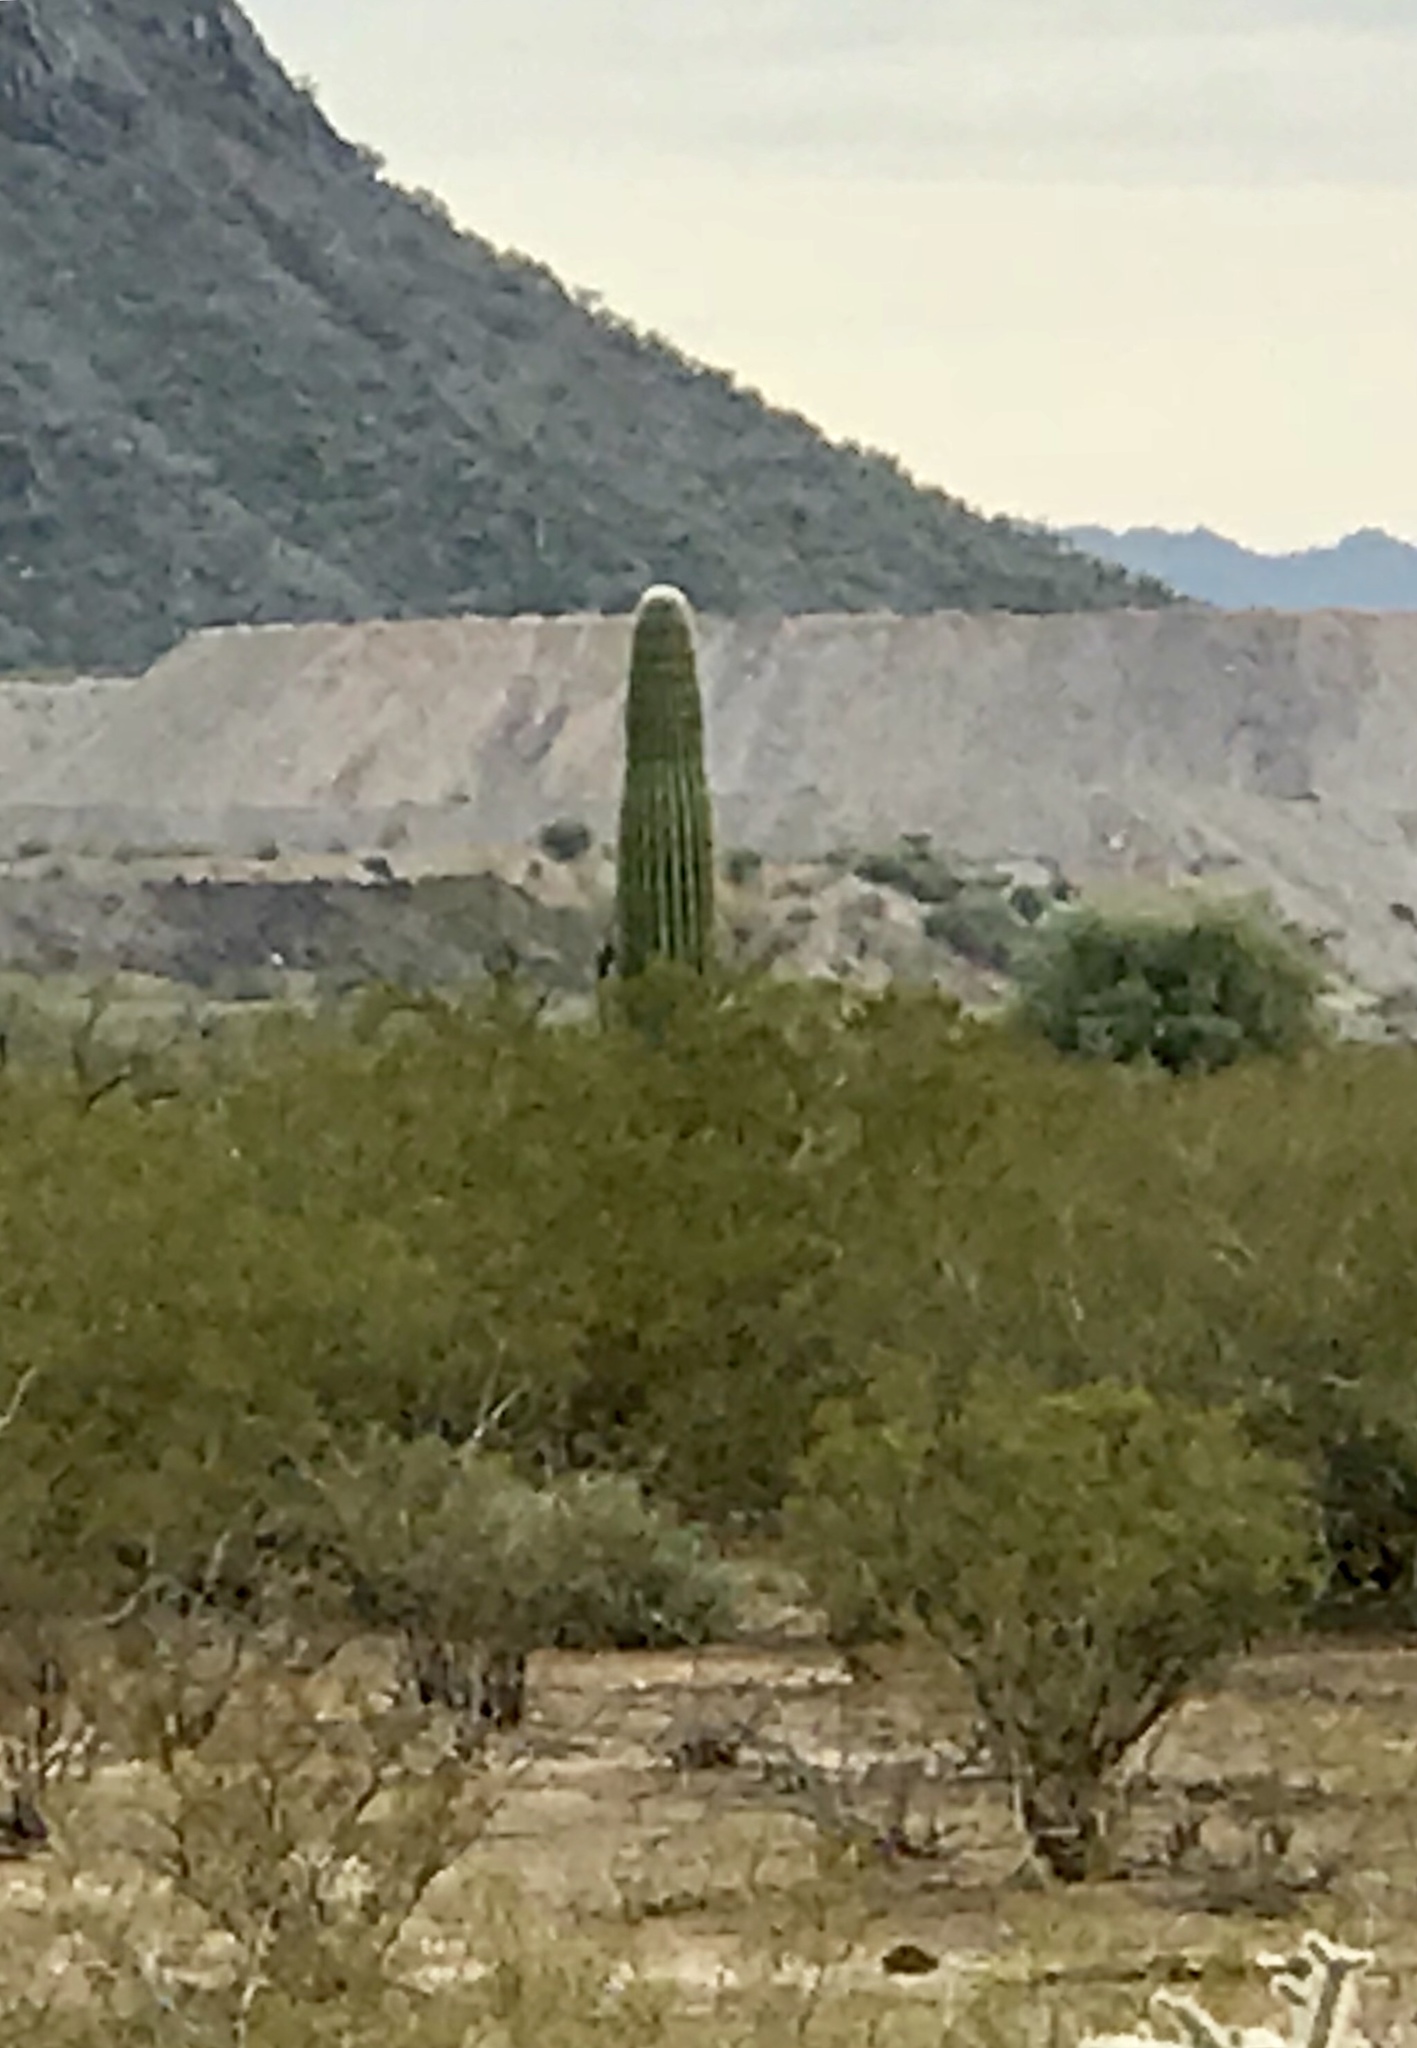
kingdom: Plantae
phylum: Tracheophyta
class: Magnoliopsida
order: Caryophyllales
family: Cactaceae
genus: Carnegiea
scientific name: Carnegiea gigantea
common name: Saguaro
